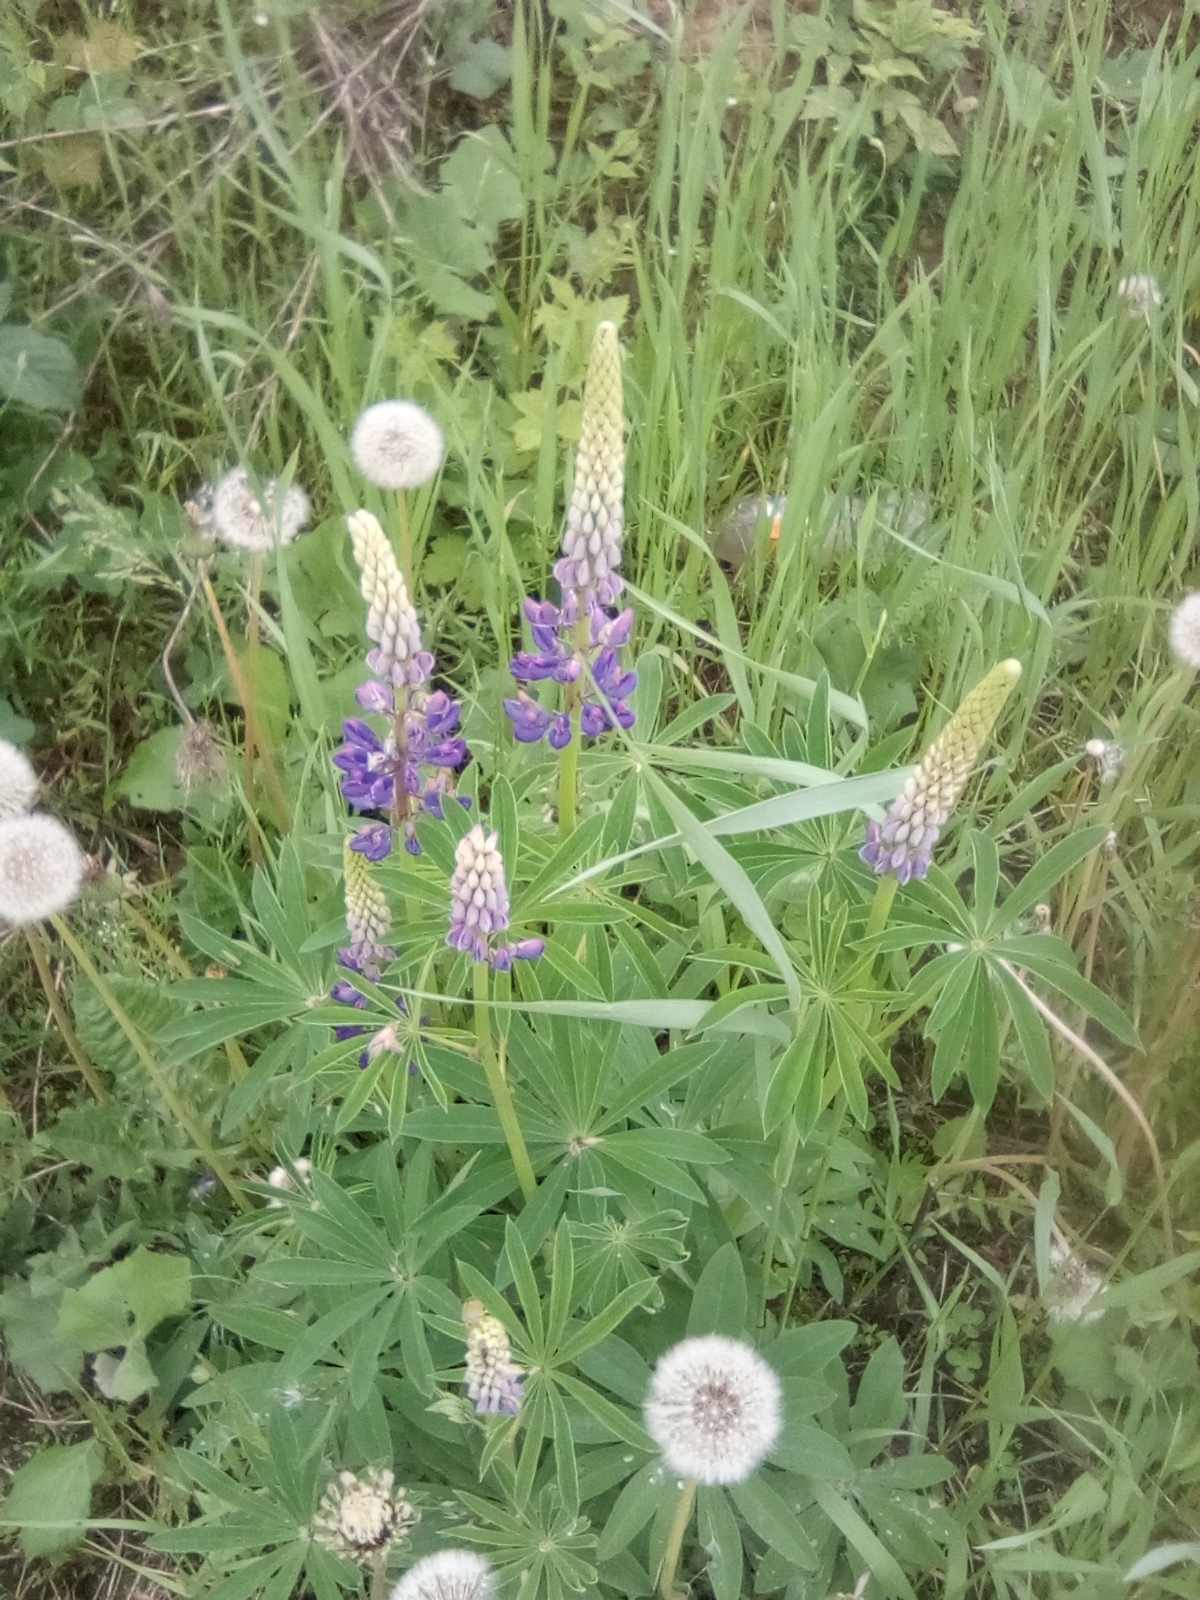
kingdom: Plantae
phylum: Tracheophyta
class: Magnoliopsida
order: Fabales
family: Fabaceae
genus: Lupinus
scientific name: Lupinus polyphyllus
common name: Garden lupin
